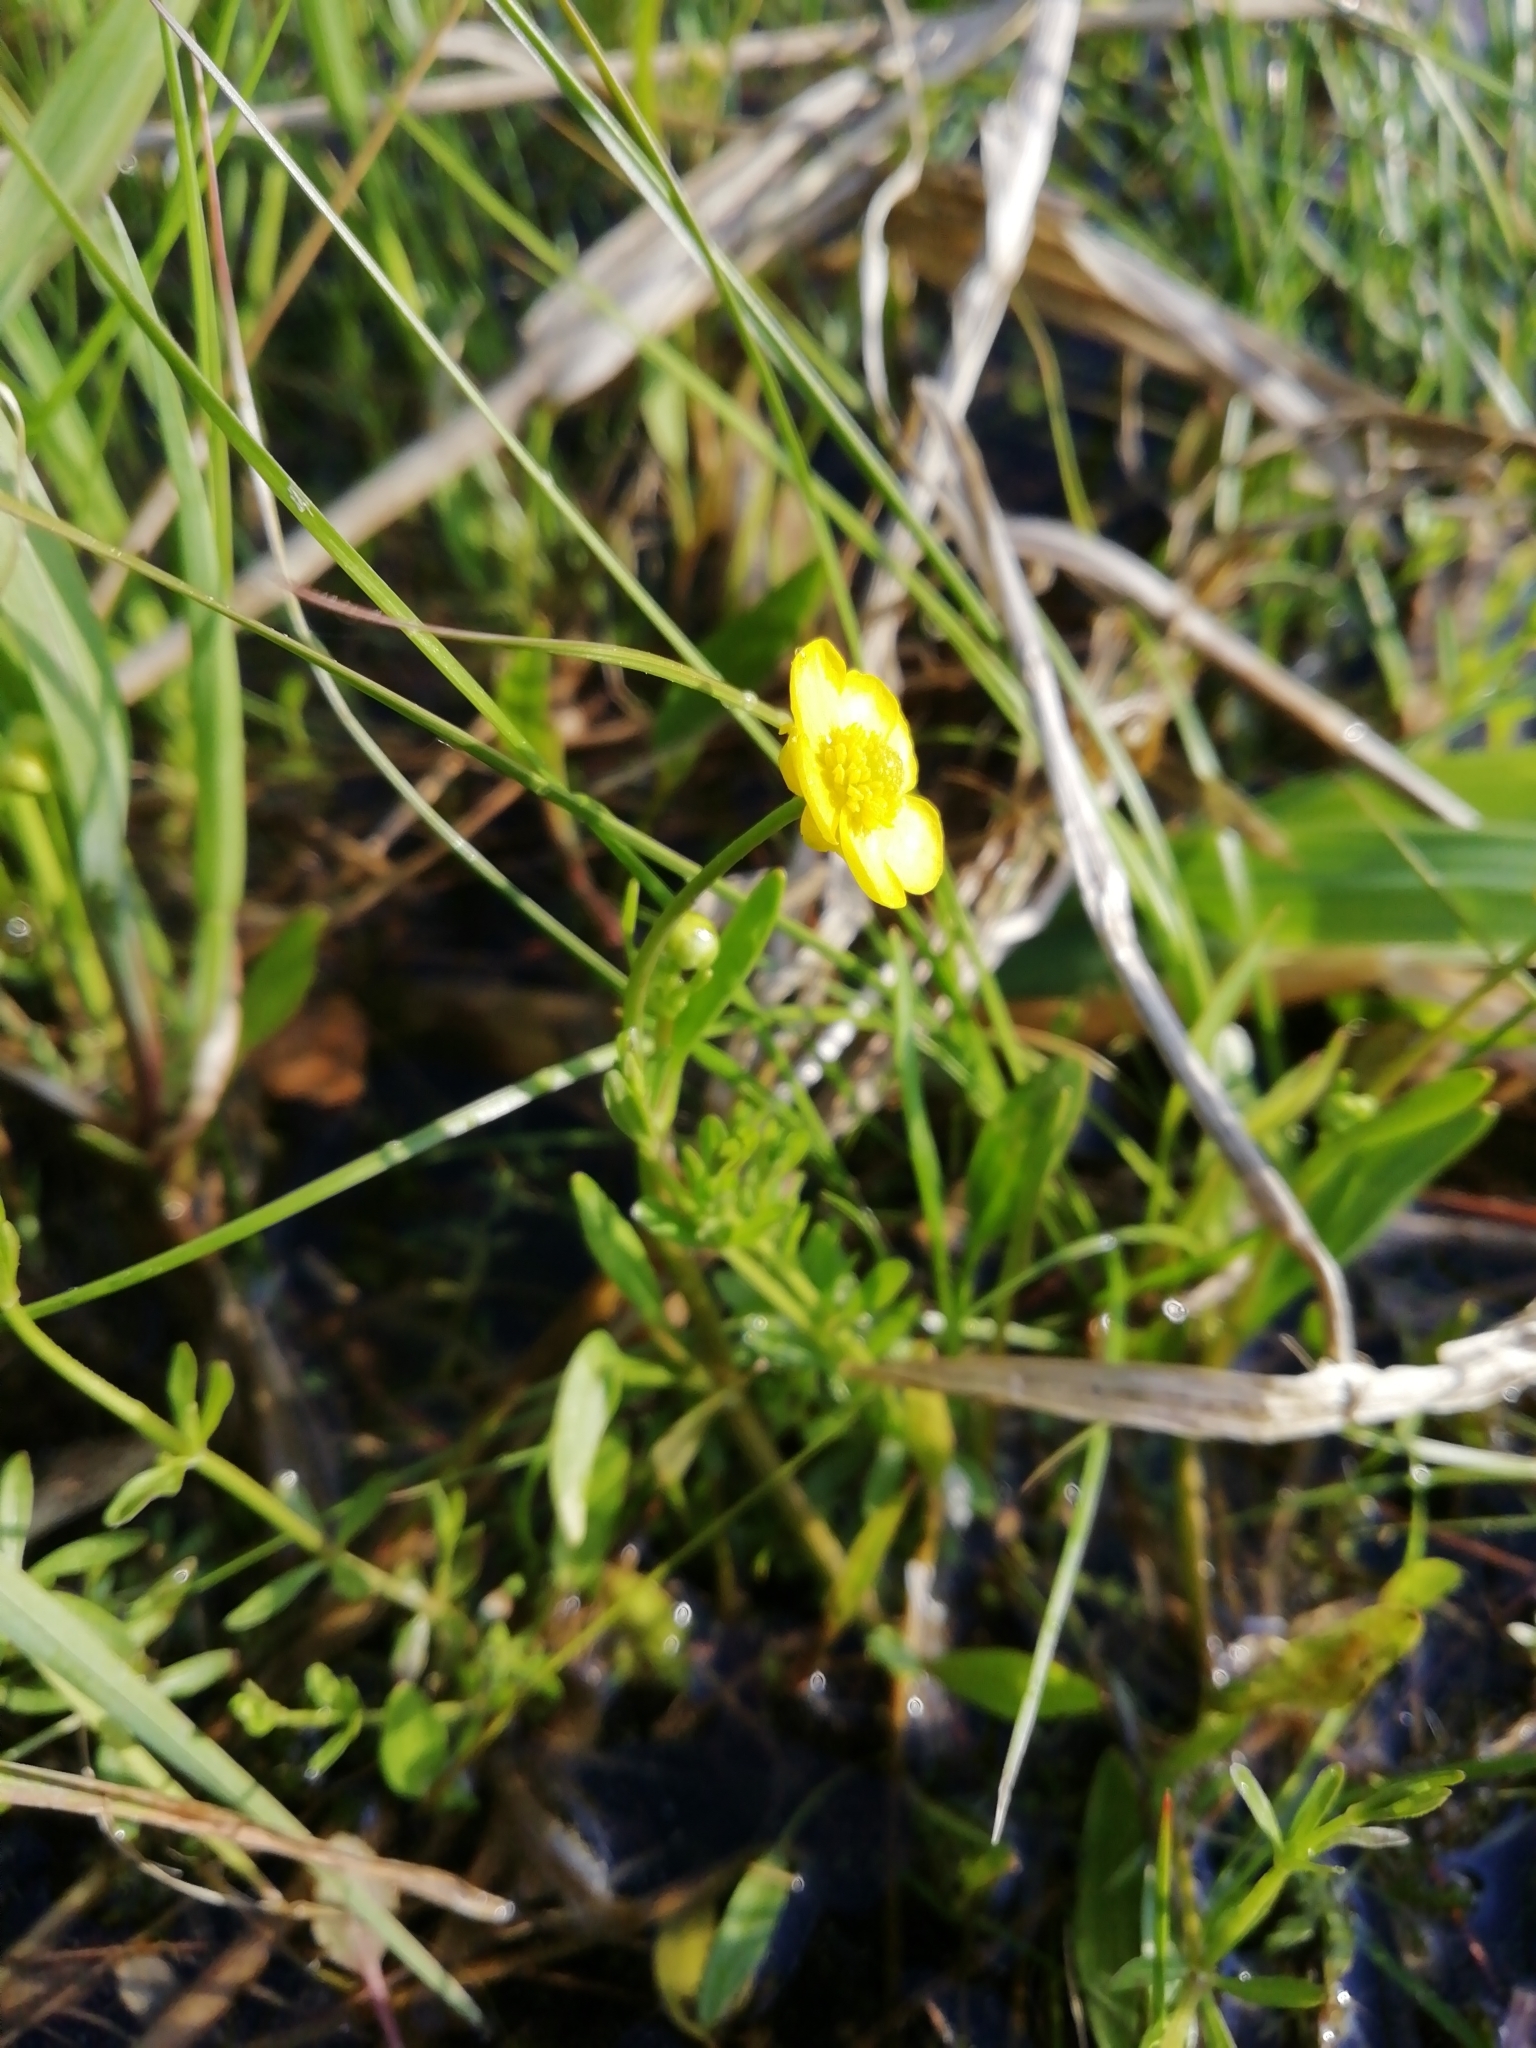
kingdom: Plantae
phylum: Tracheophyta
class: Magnoliopsida
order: Ranunculales
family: Ranunculaceae
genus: Ranunculus
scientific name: Ranunculus flammula
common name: Lesser spearwort
